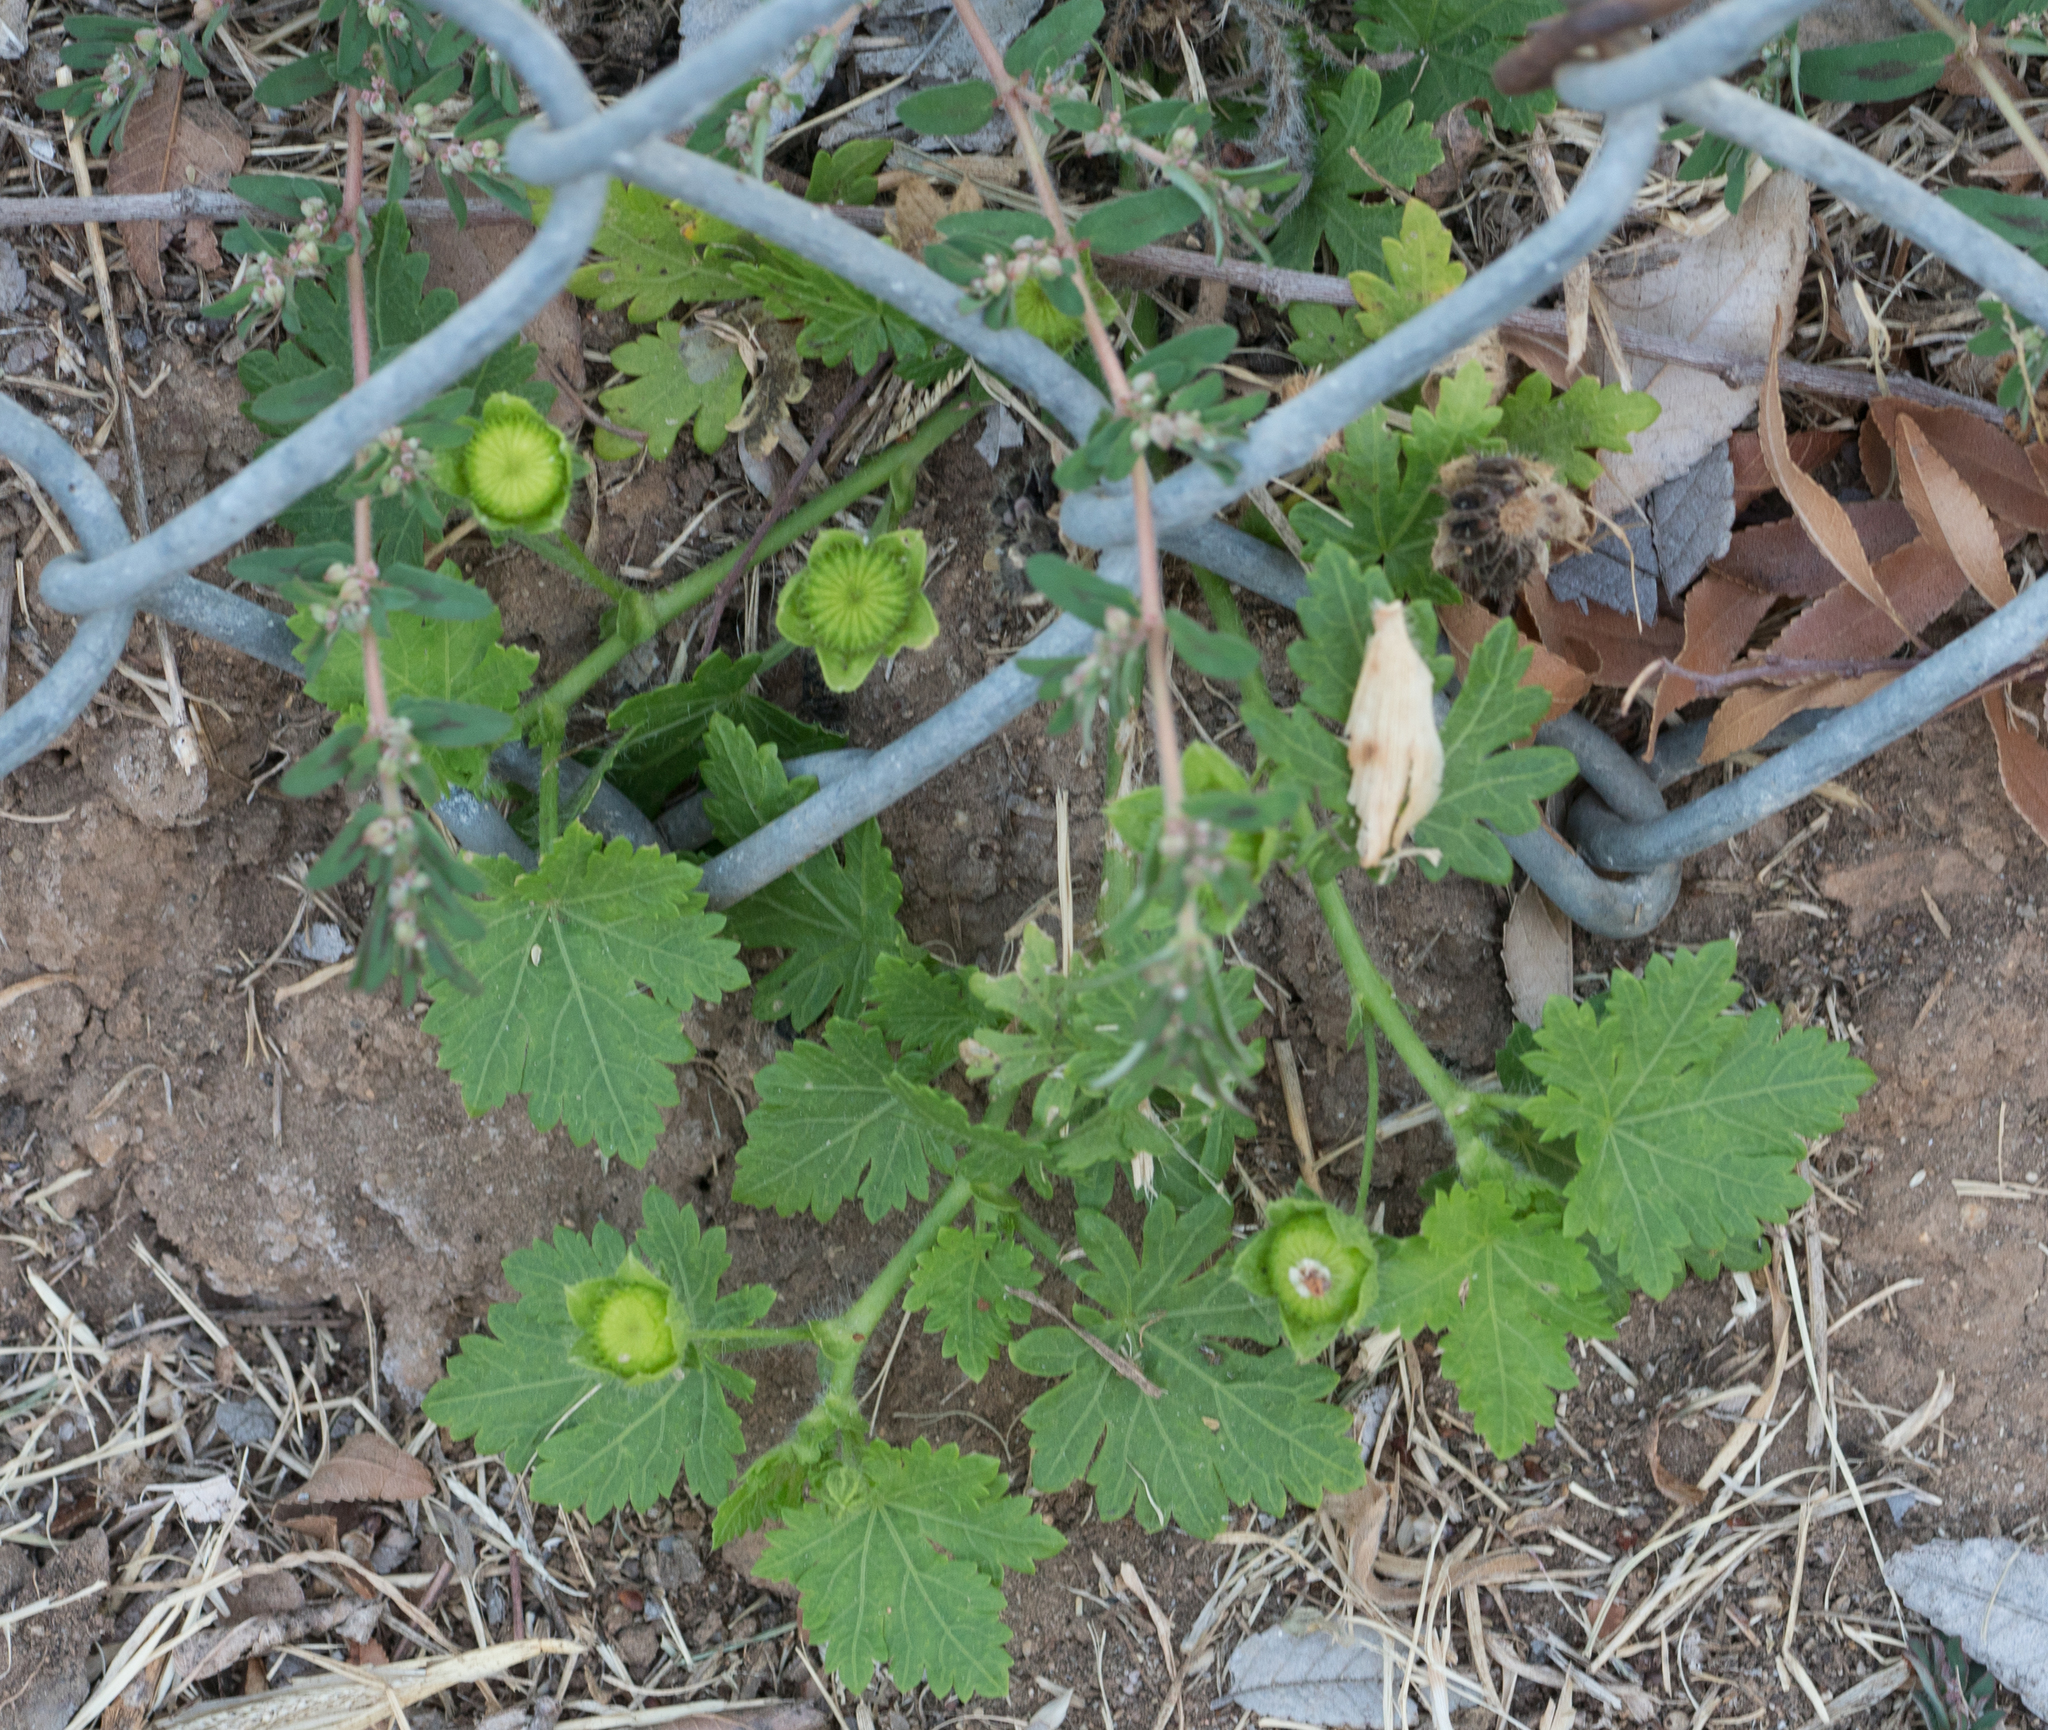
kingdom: Plantae
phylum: Tracheophyta
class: Magnoliopsida
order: Malvales
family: Malvaceae
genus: Modiola
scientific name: Modiola caroliniana
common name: Carolina bristlemallow
